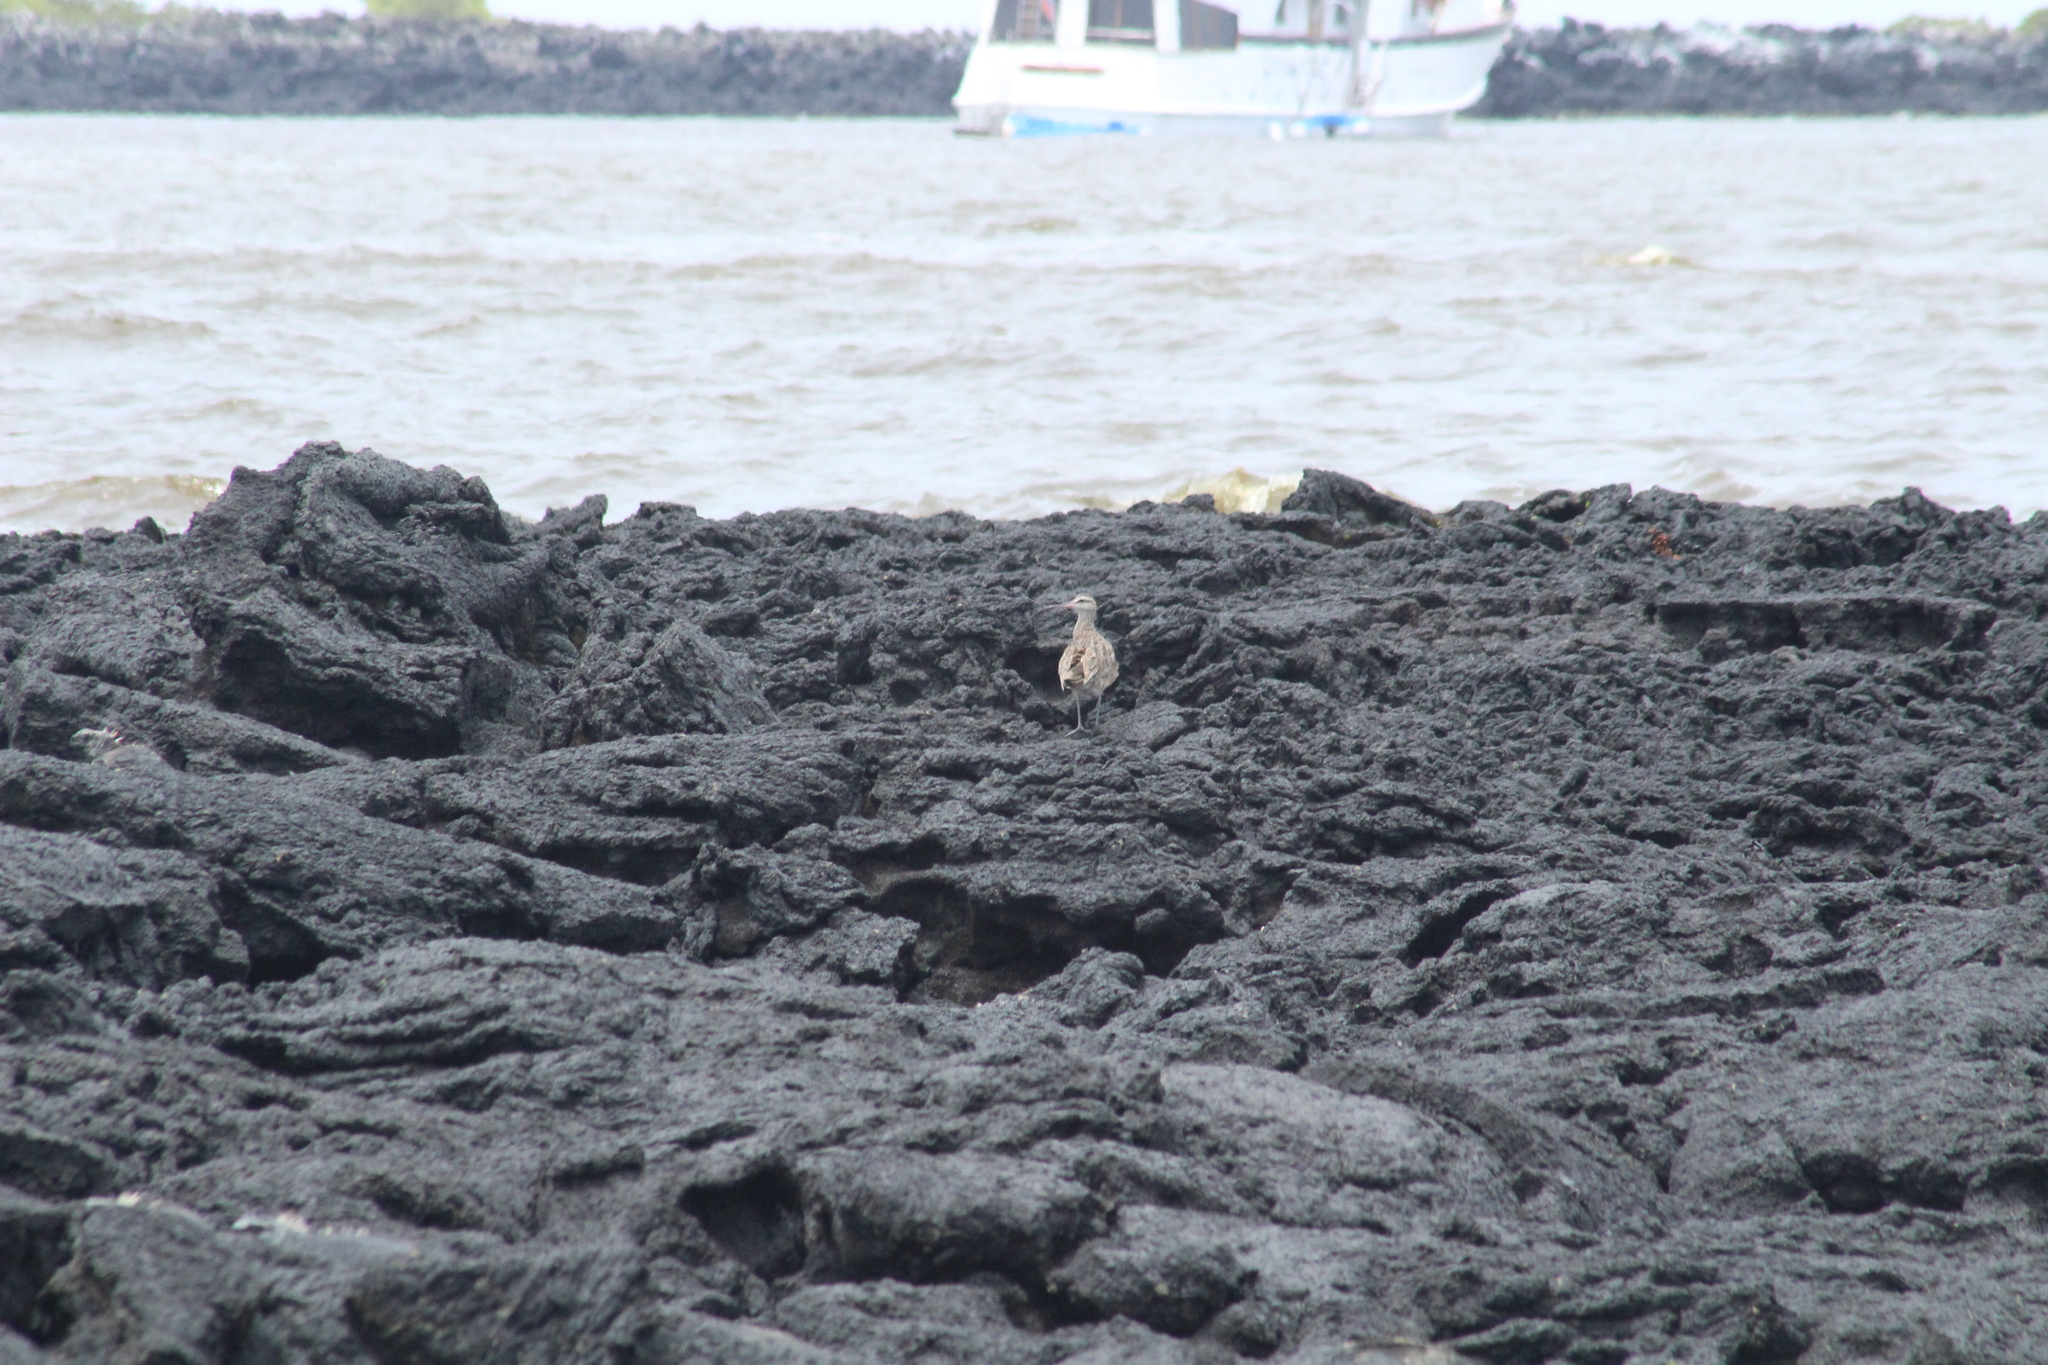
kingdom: Animalia
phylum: Chordata
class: Aves
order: Charadriiformes
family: Scolopacidae
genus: Numenius
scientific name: Numenius hudsonicus
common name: Hudsonian whimbrel
